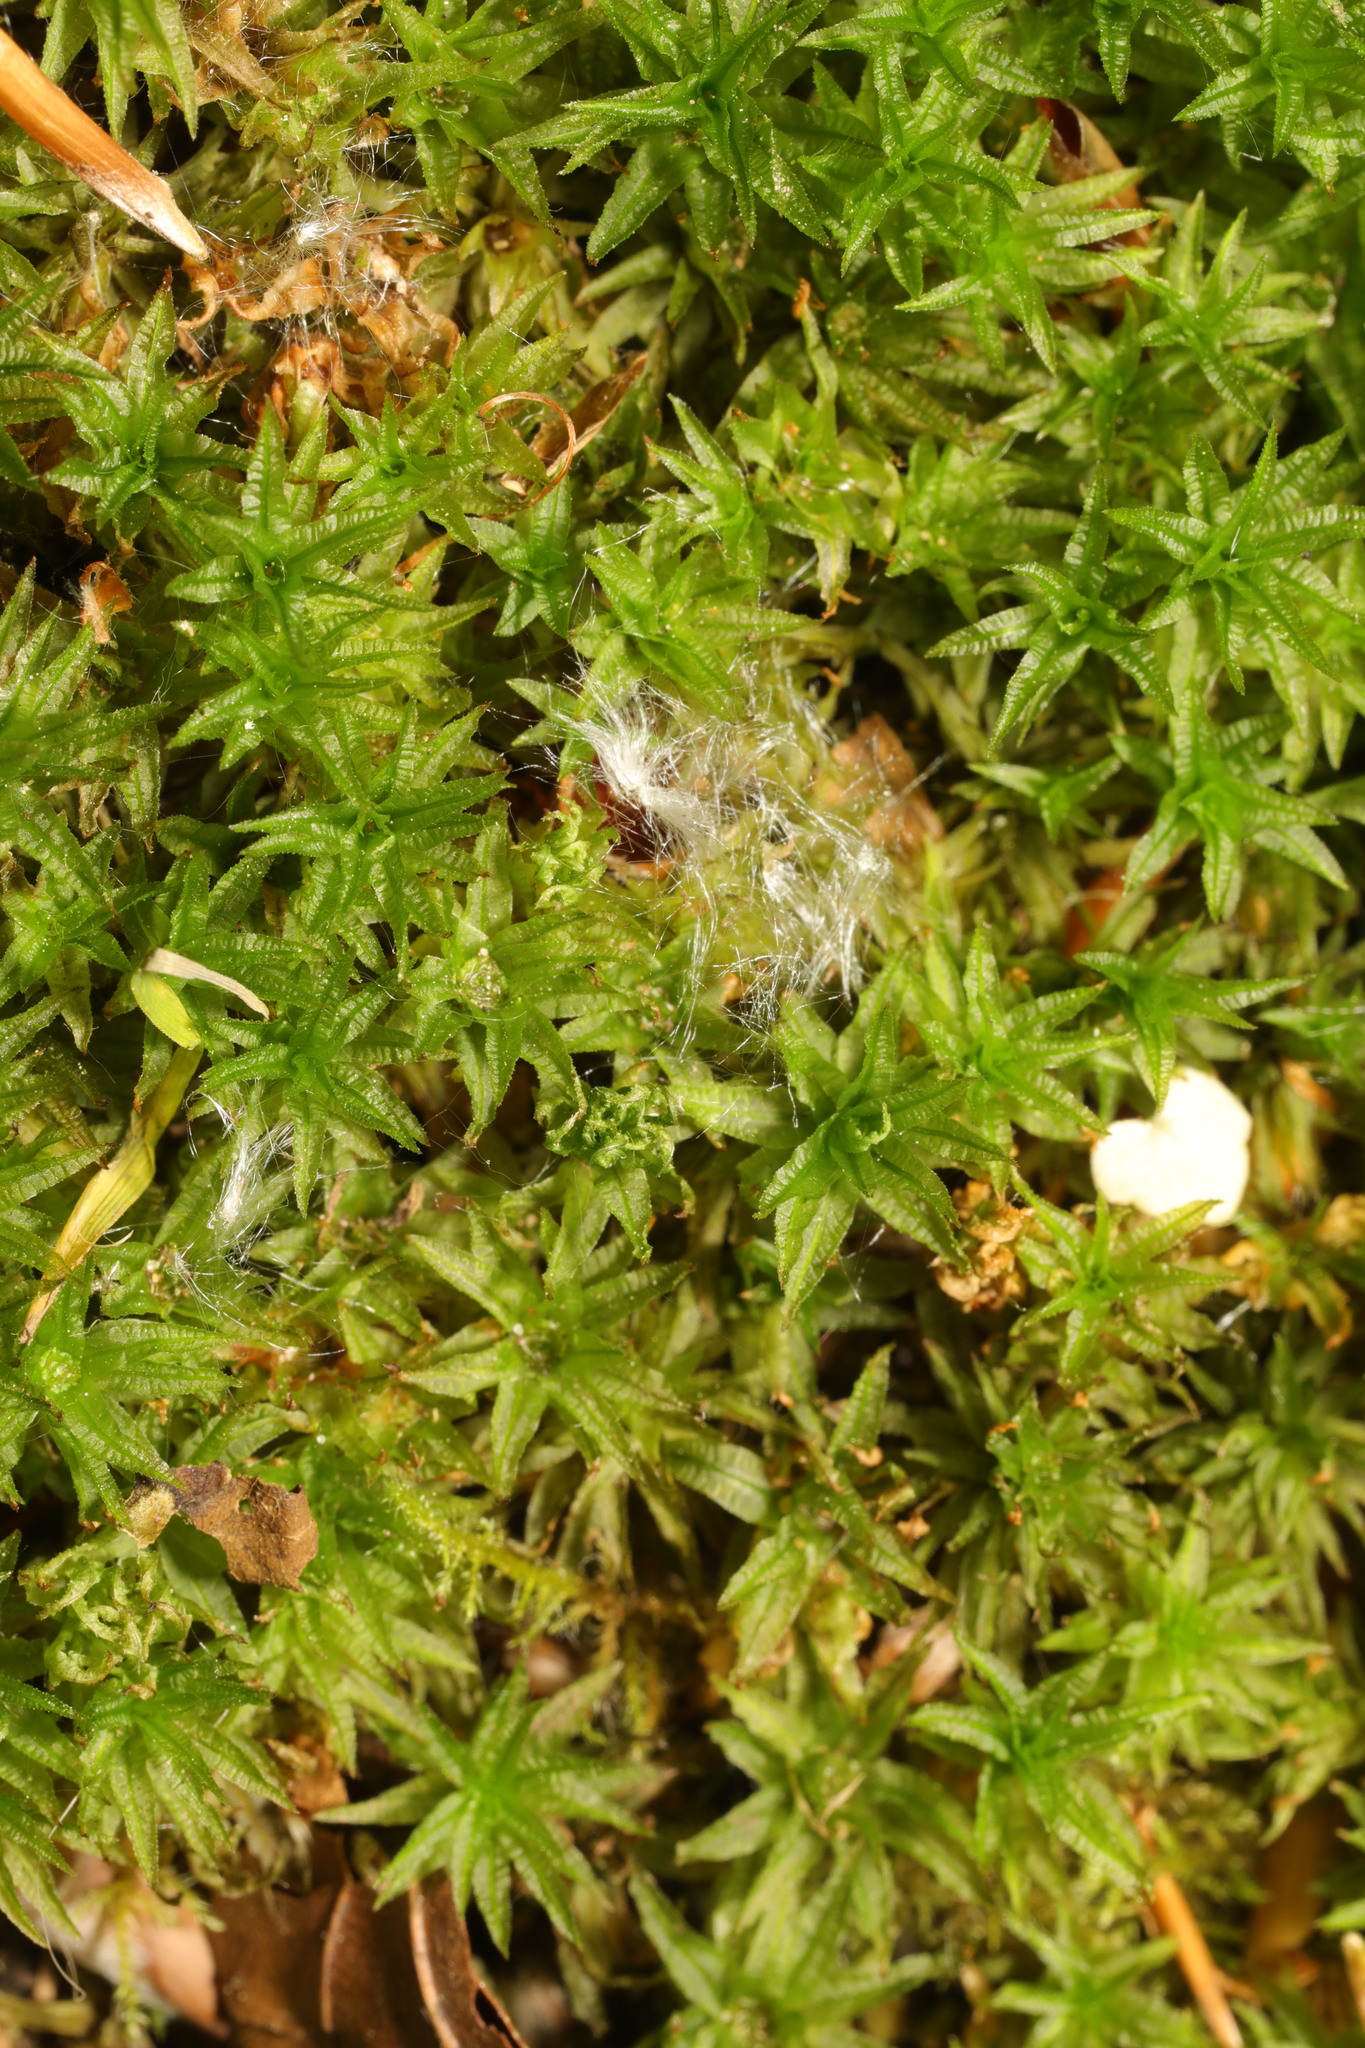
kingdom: Plantae
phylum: Bryophyta
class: Polytrichopsida
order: Polytrichales
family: Polytrichaceae
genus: Atrichum
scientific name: Atrichum undulatum
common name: Common smoothcap
